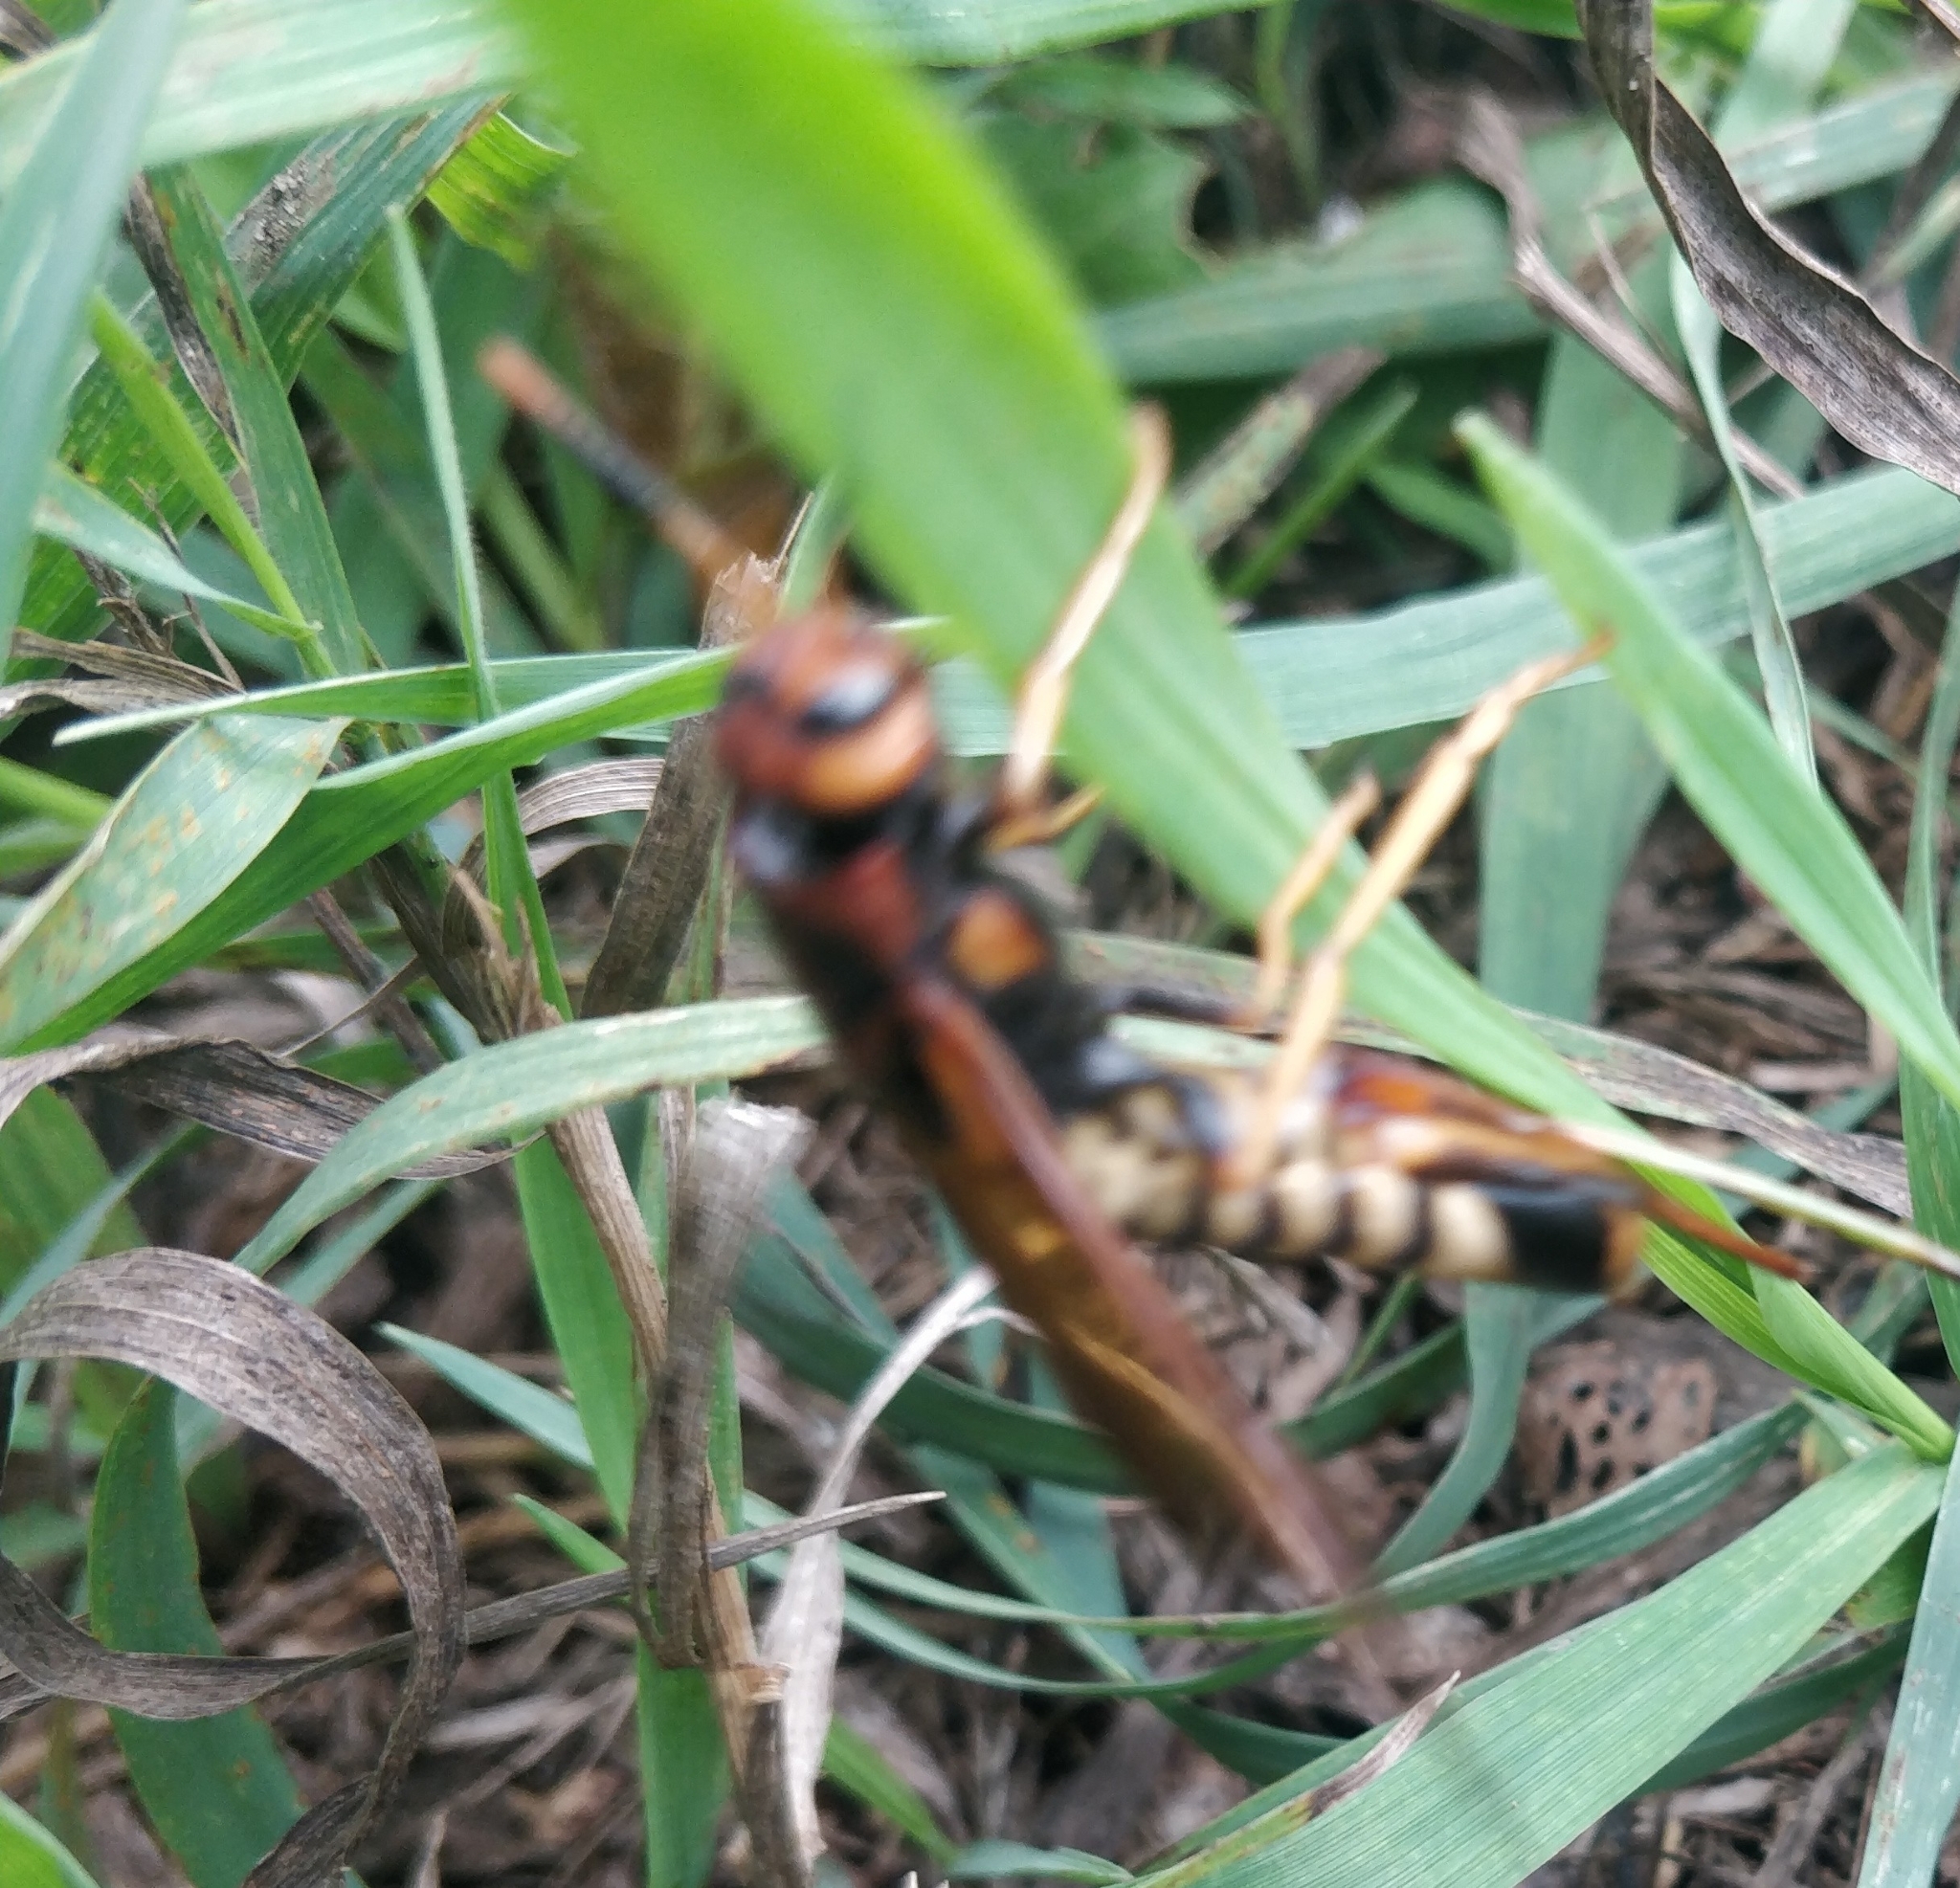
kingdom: Animalia
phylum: Arthropoda
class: Insecta
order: Hymenoptera
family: Siricidae
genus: Tremex
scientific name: Tremex columba
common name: Wasp
